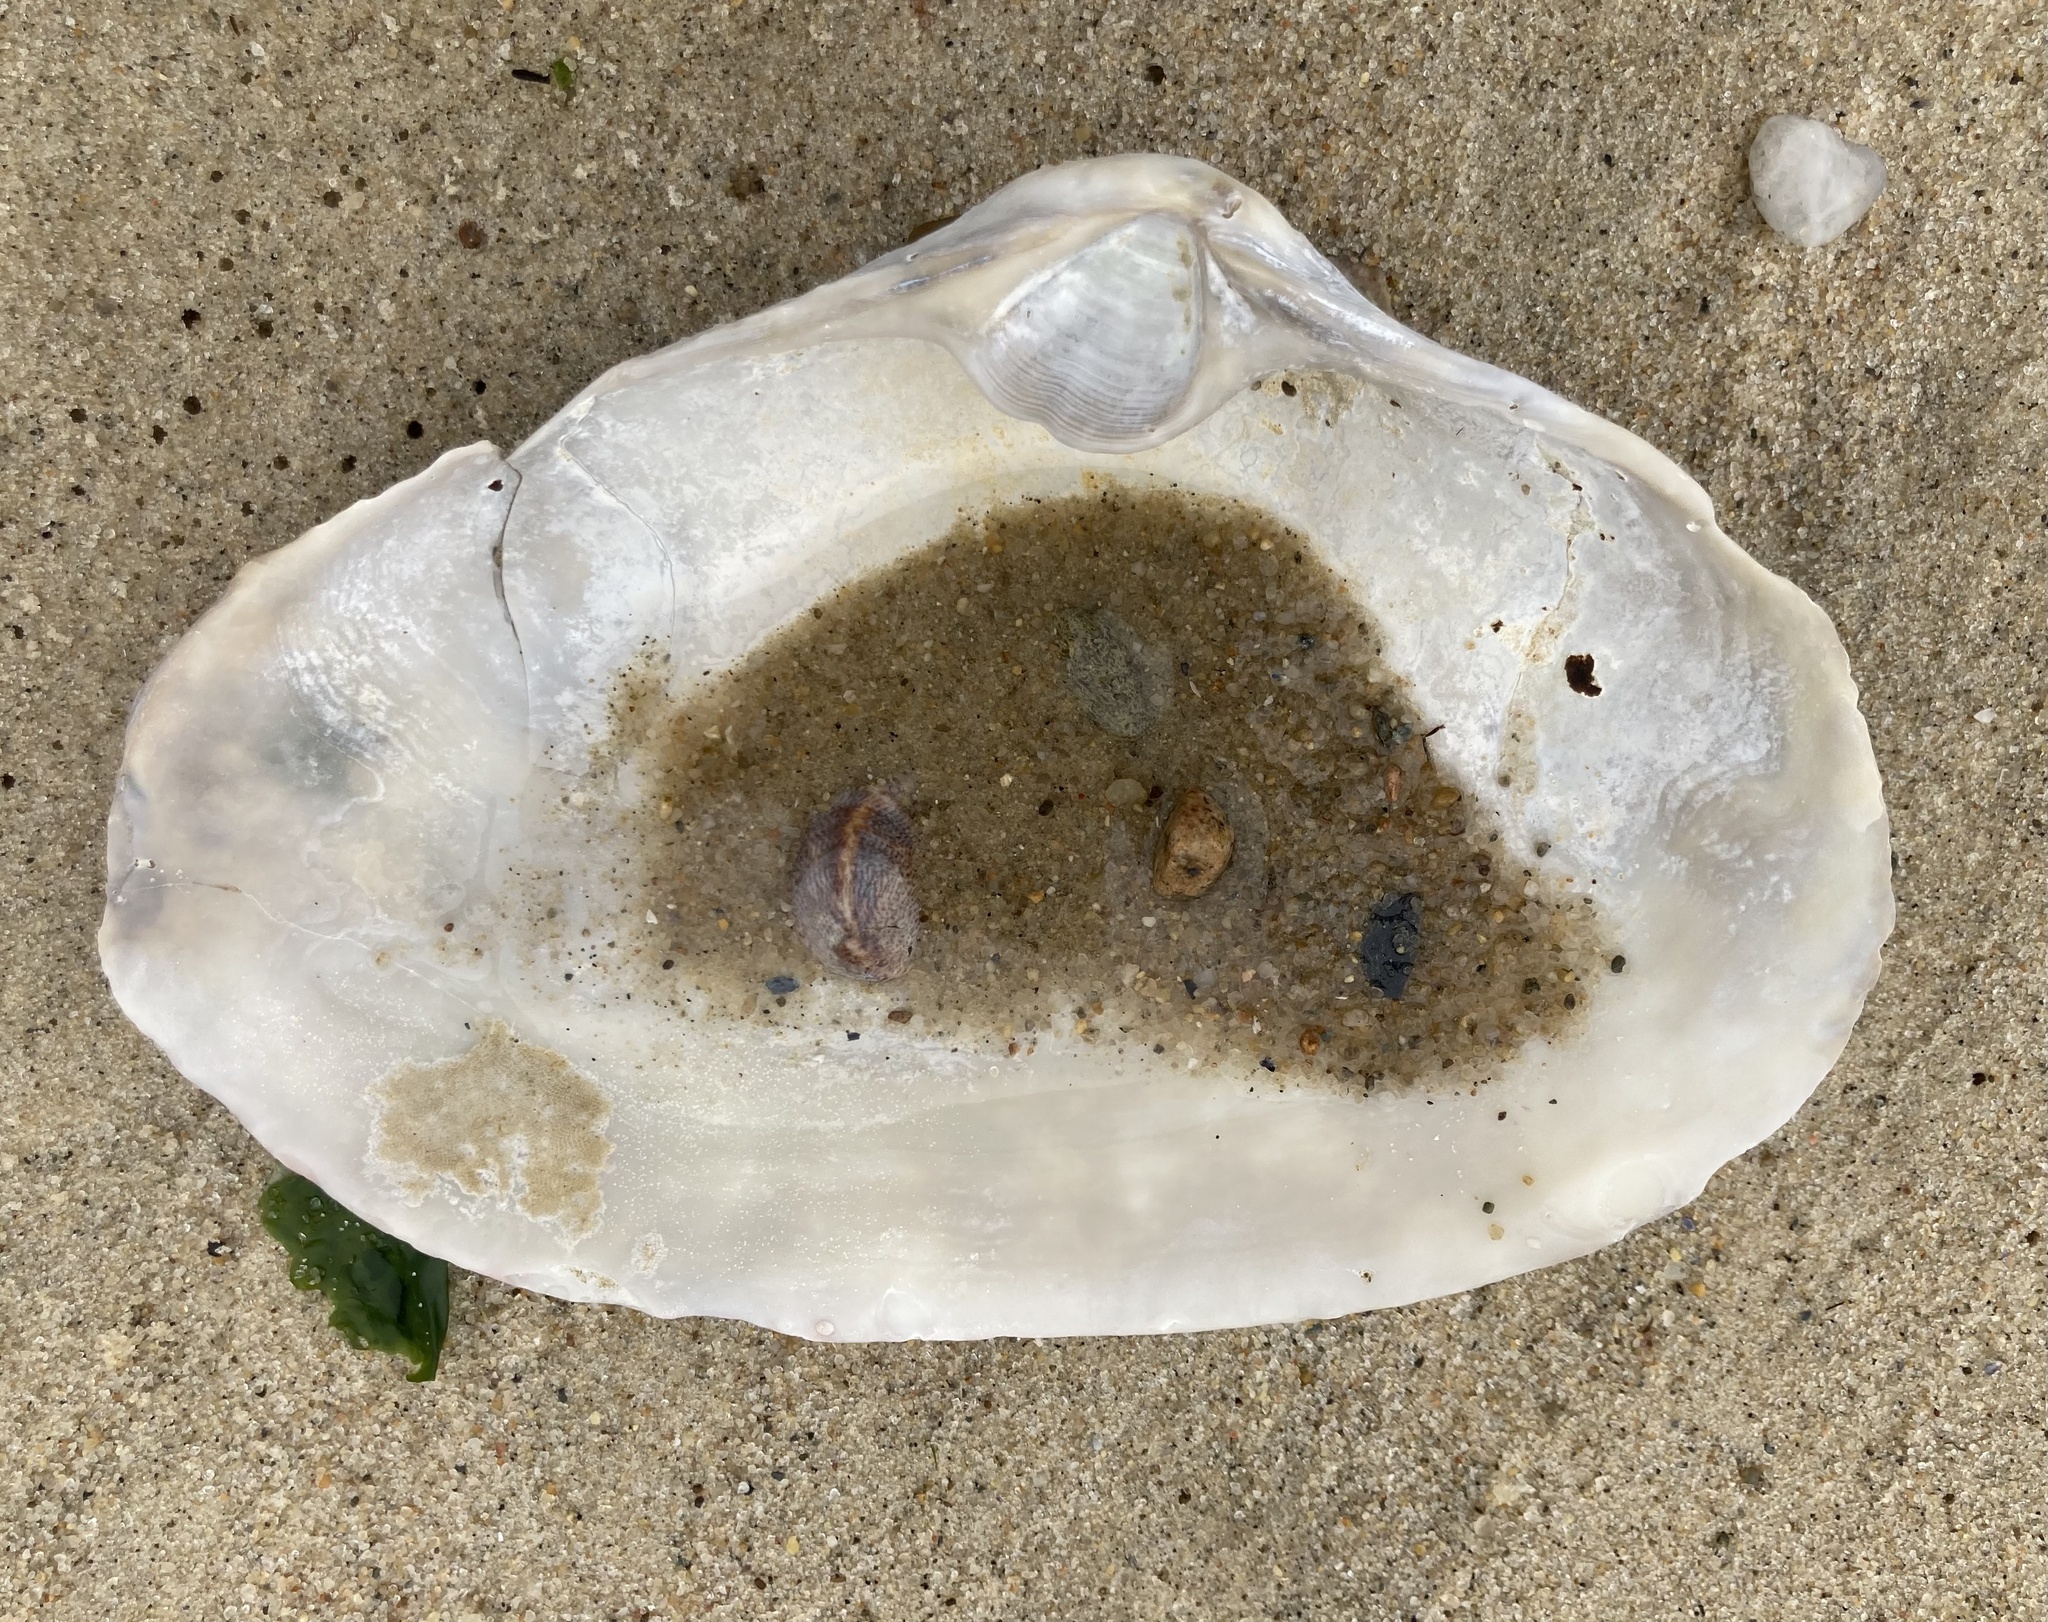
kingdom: Animalia
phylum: Mollusca
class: Bivalvia
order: Venerida
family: Mactridae
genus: Spisula
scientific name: Spisula solidissima
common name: Atlantic surf clam
